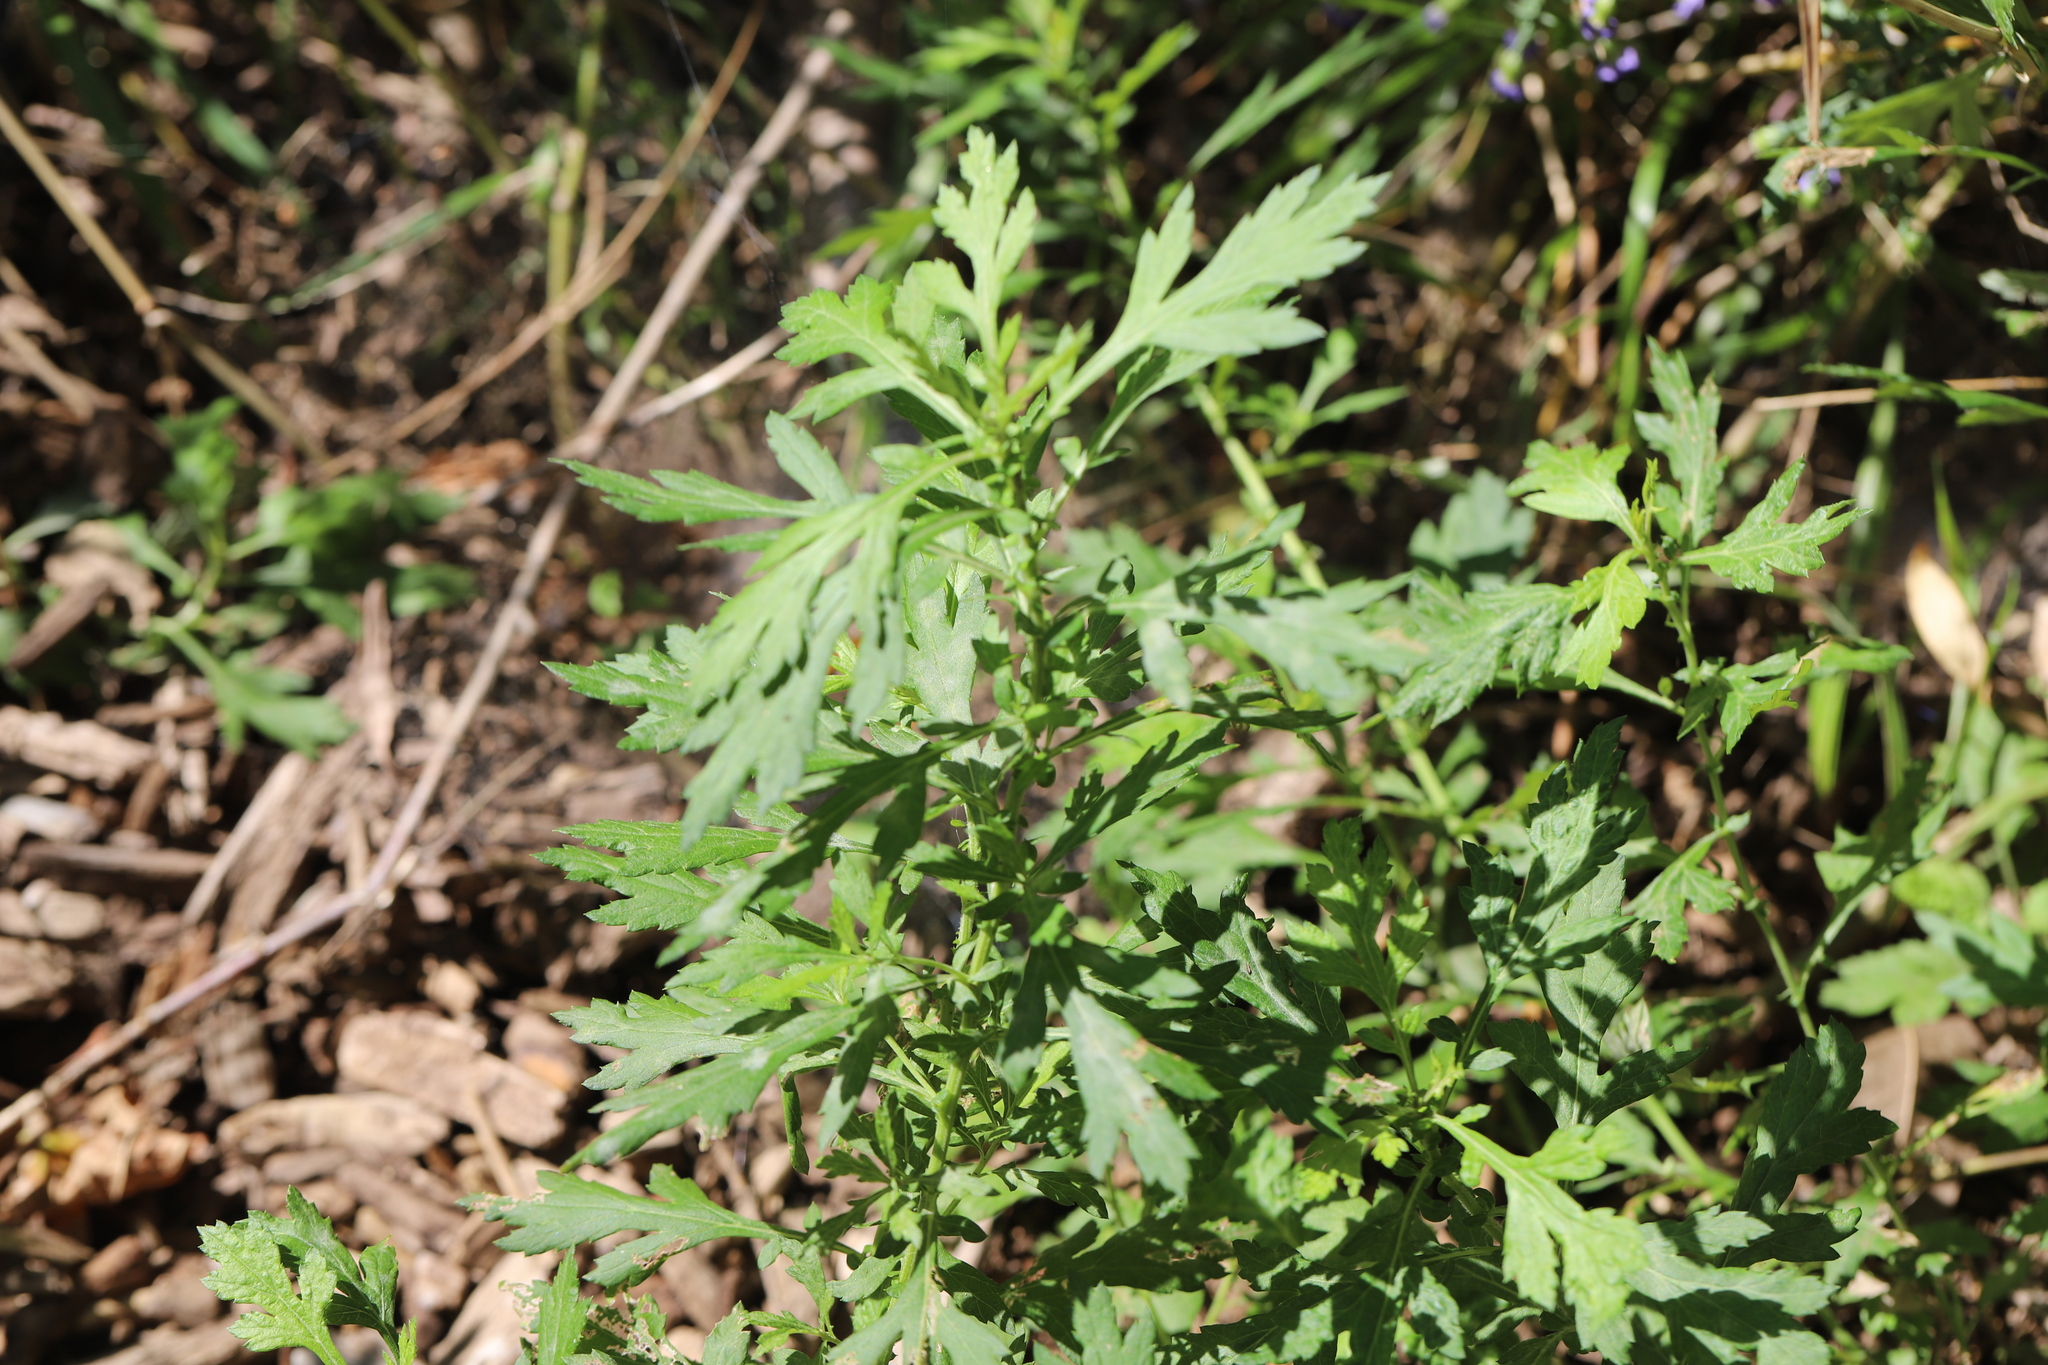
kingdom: Plantae
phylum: Tracheophyta
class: Magnoliopsida
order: Asterales
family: Asteraceae
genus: Artemisia
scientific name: Artemisia vulgaris
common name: Mugwort
